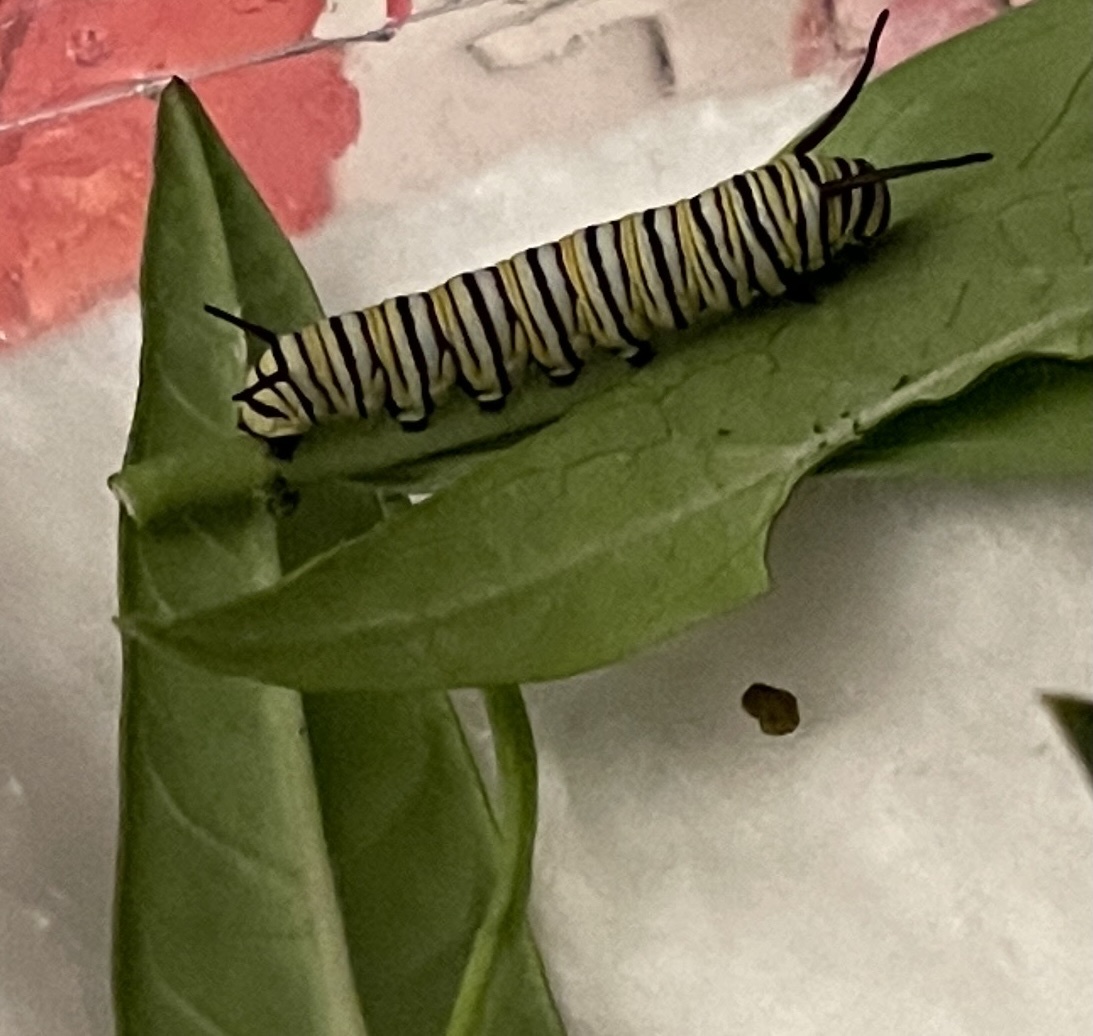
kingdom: Animalia
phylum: Arthropoda
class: Insecta
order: Lepidoptera
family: Nymphalidae
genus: Danaus
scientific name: Danaus plexippus
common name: Monarch
